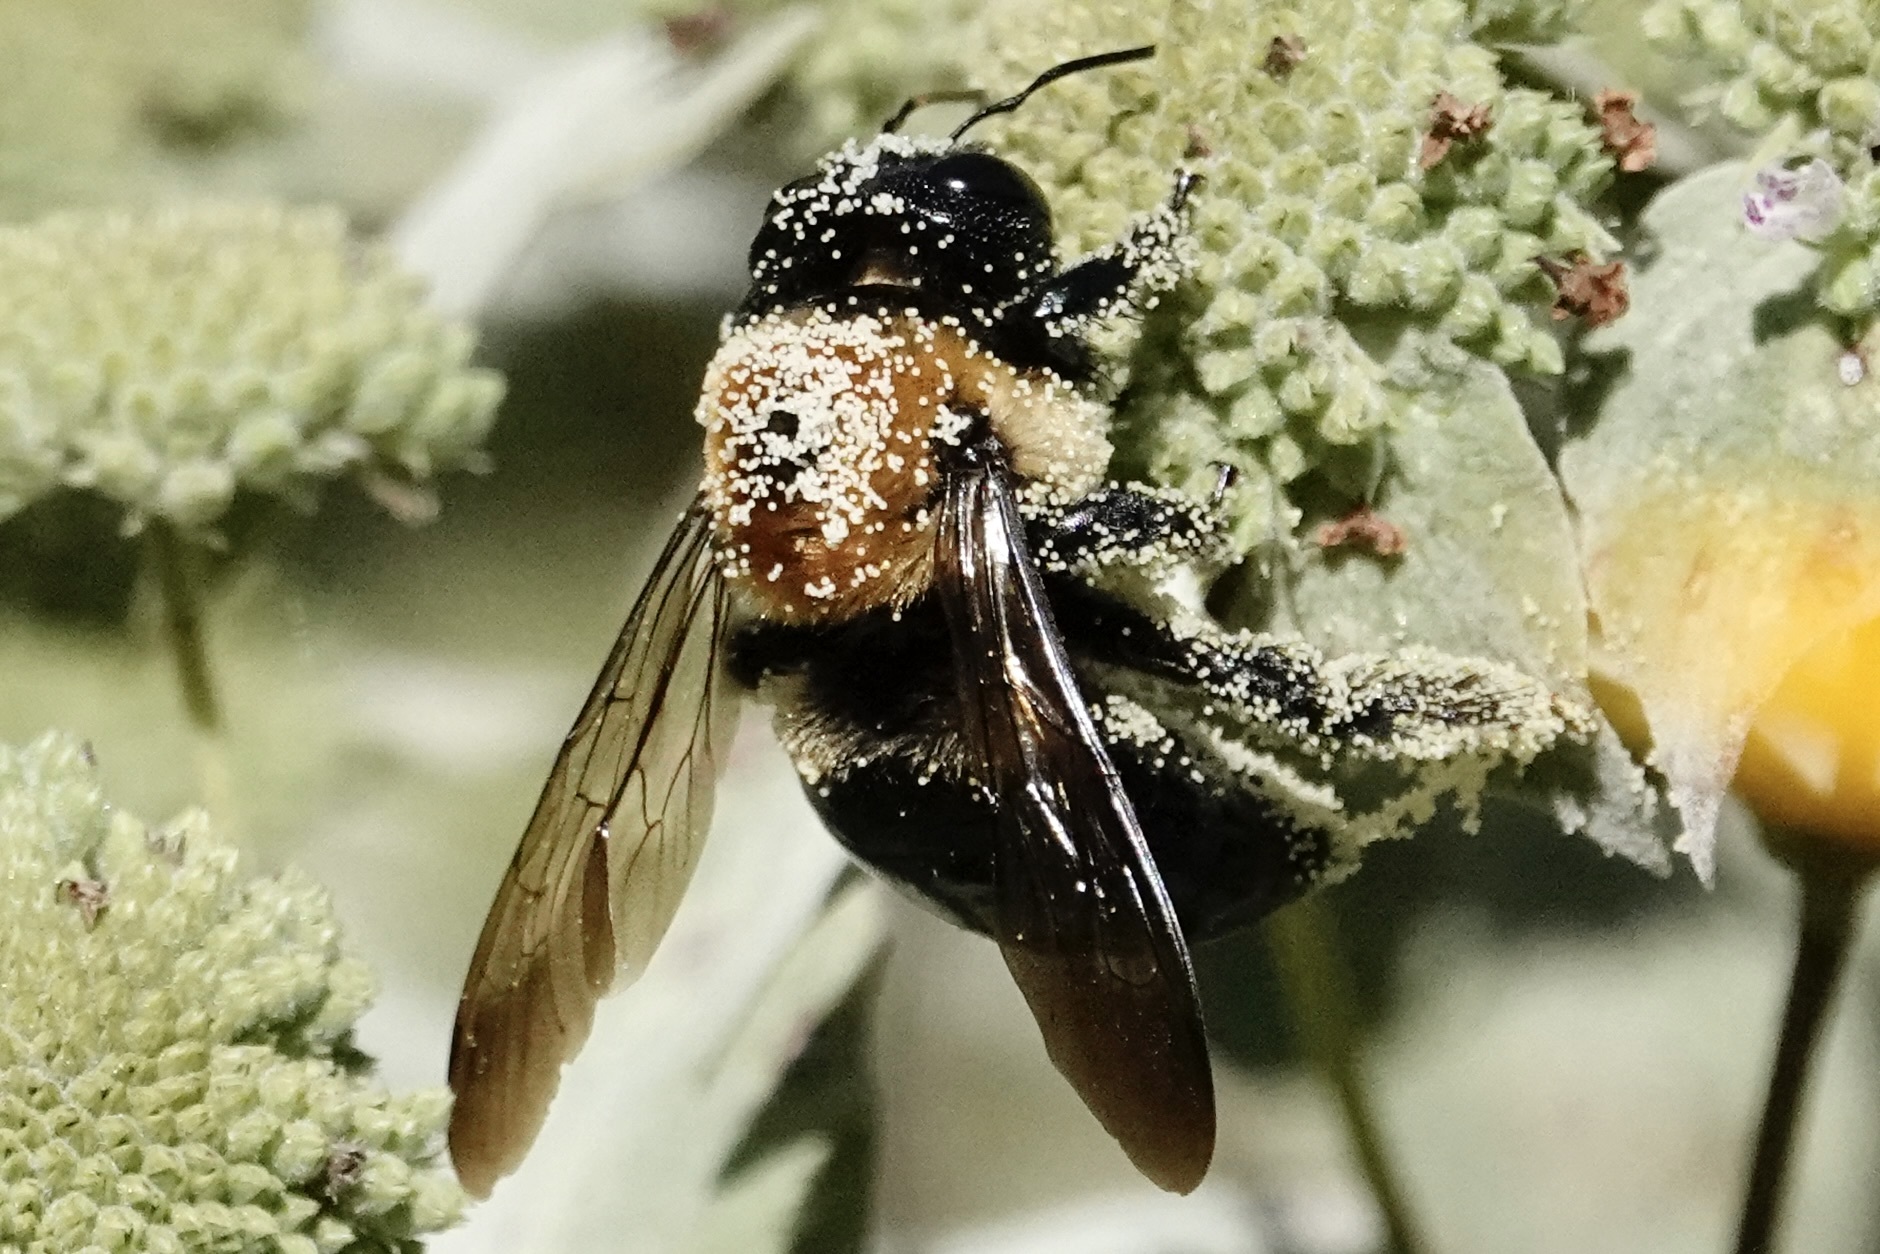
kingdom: Animalia
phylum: Arthropoda
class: Insecta
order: Hymenoptera
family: Apidae
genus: Xylocopa
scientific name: Xylocopa virginica
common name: Carpenter bee
